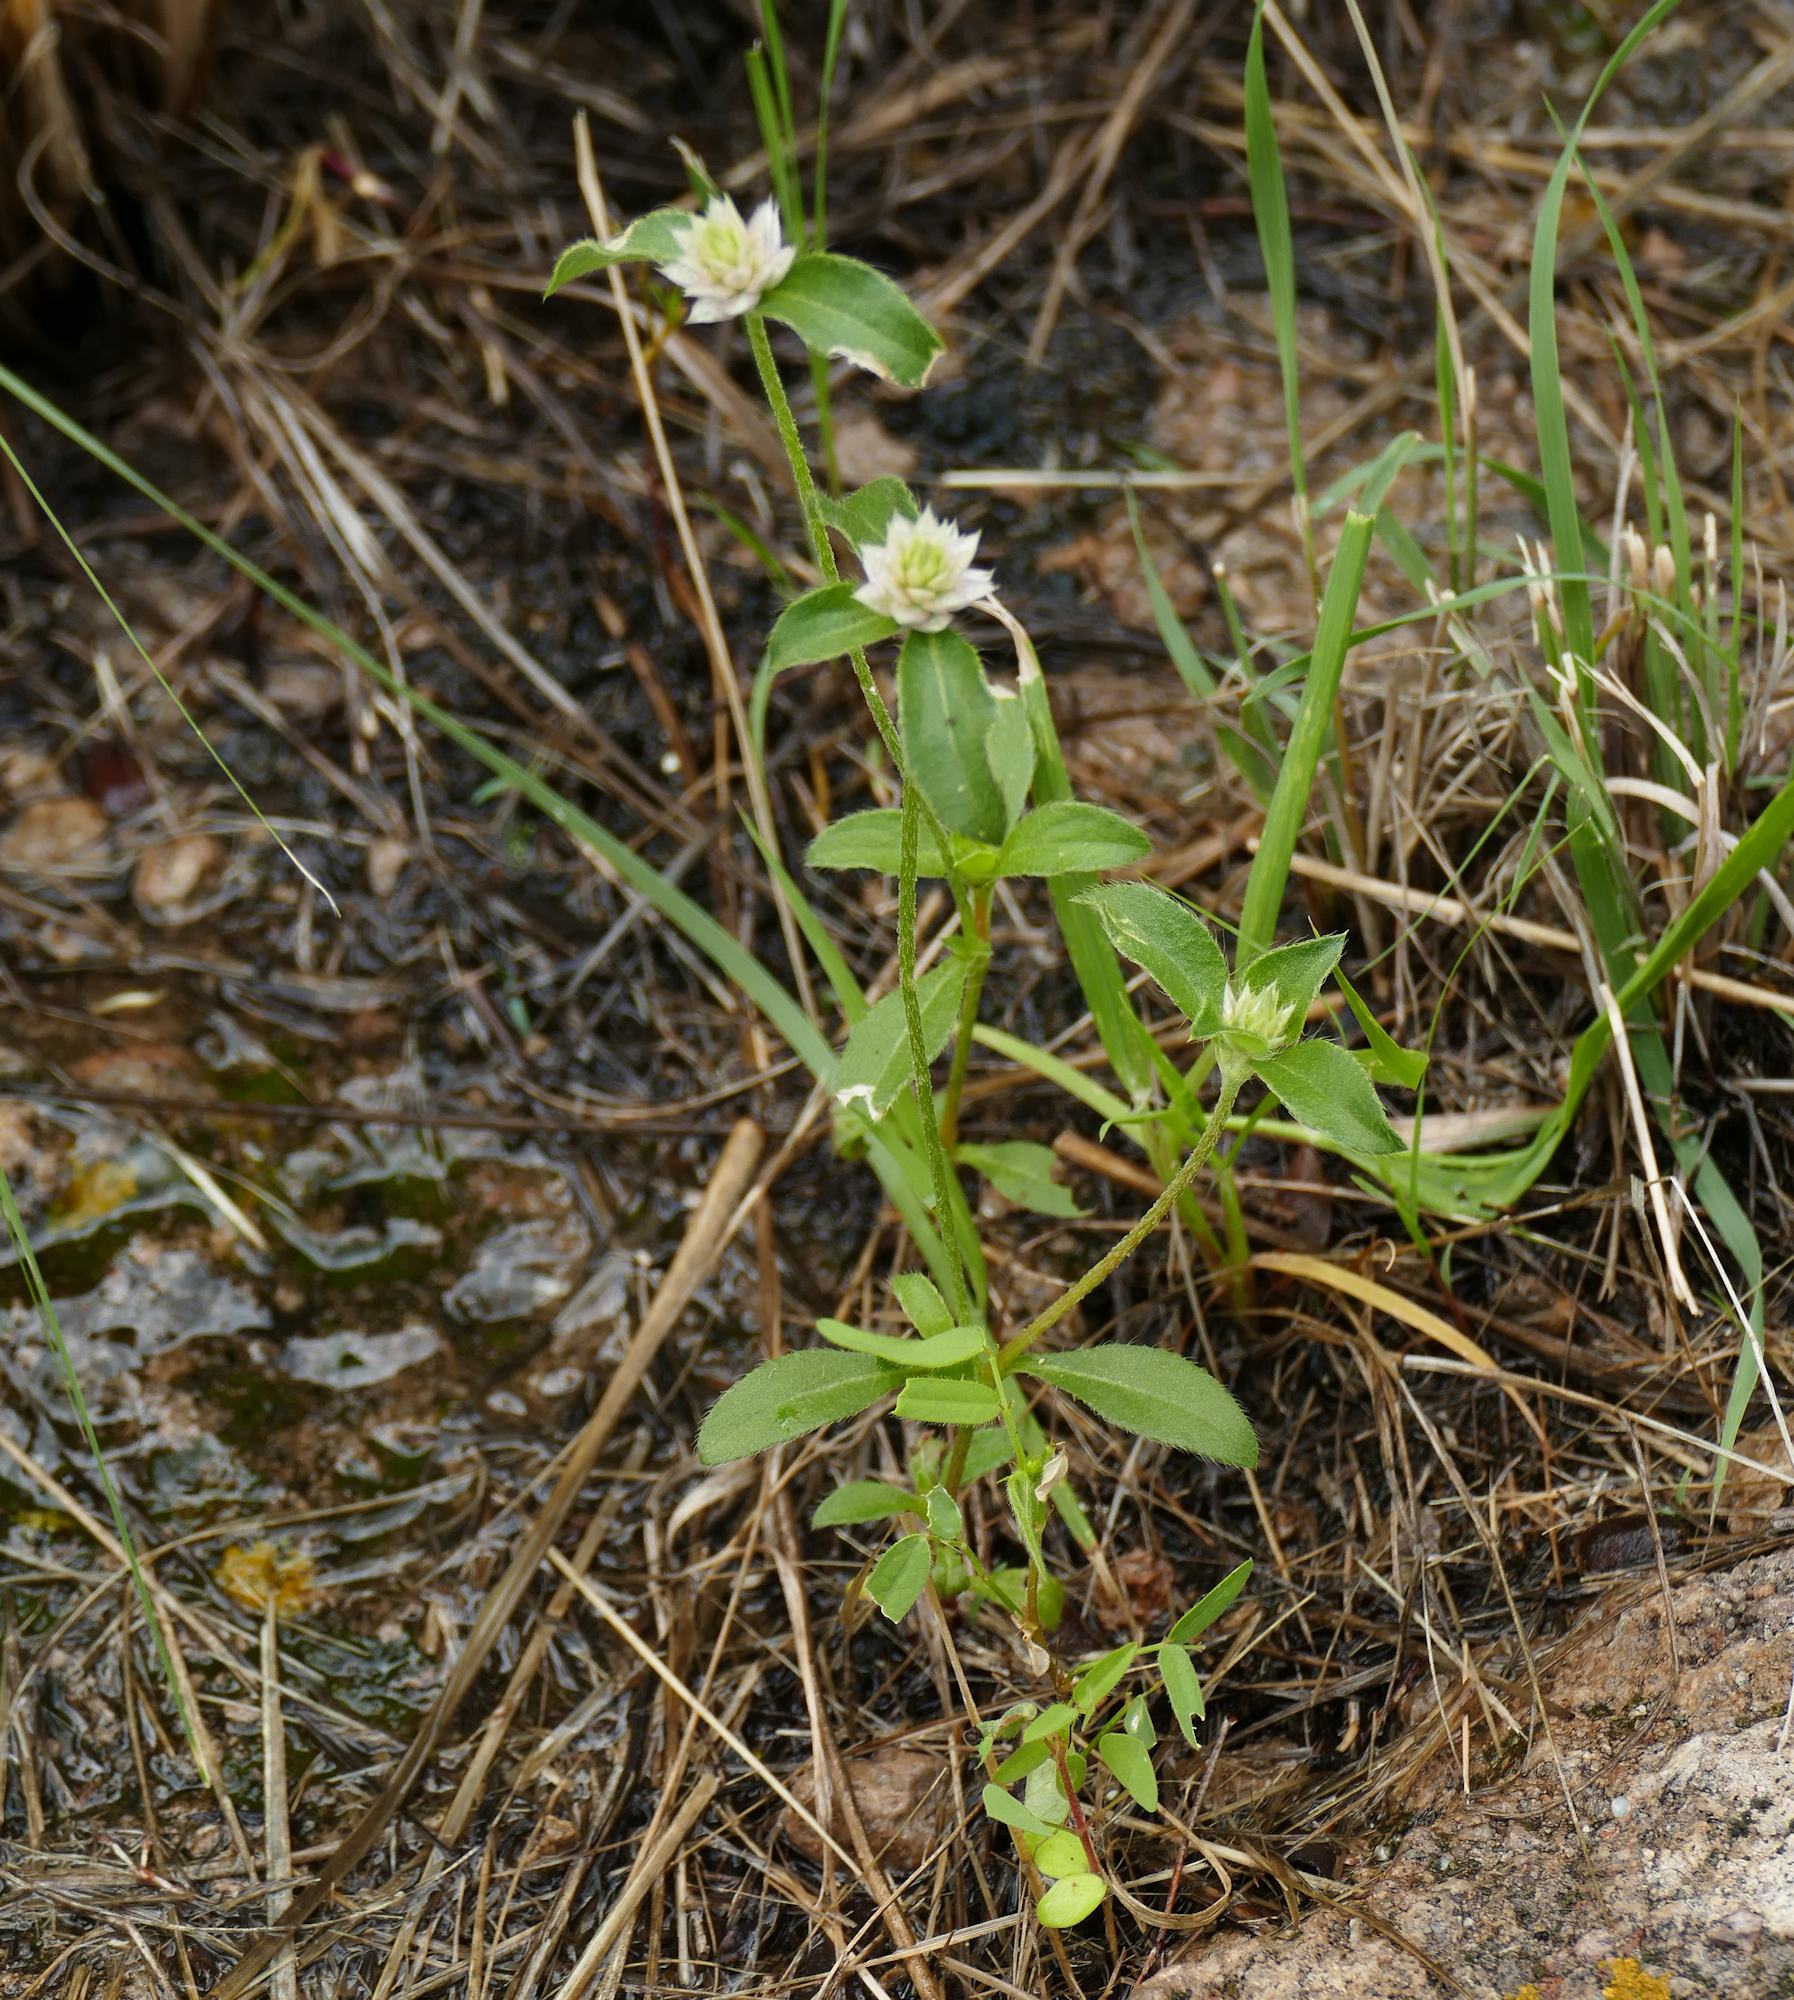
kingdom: Plantae
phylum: Tracheophyta
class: Magnoliopsida
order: Caryophyllales
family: Amaranthaceae
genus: Gomphrena
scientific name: Gomphrena nitida
